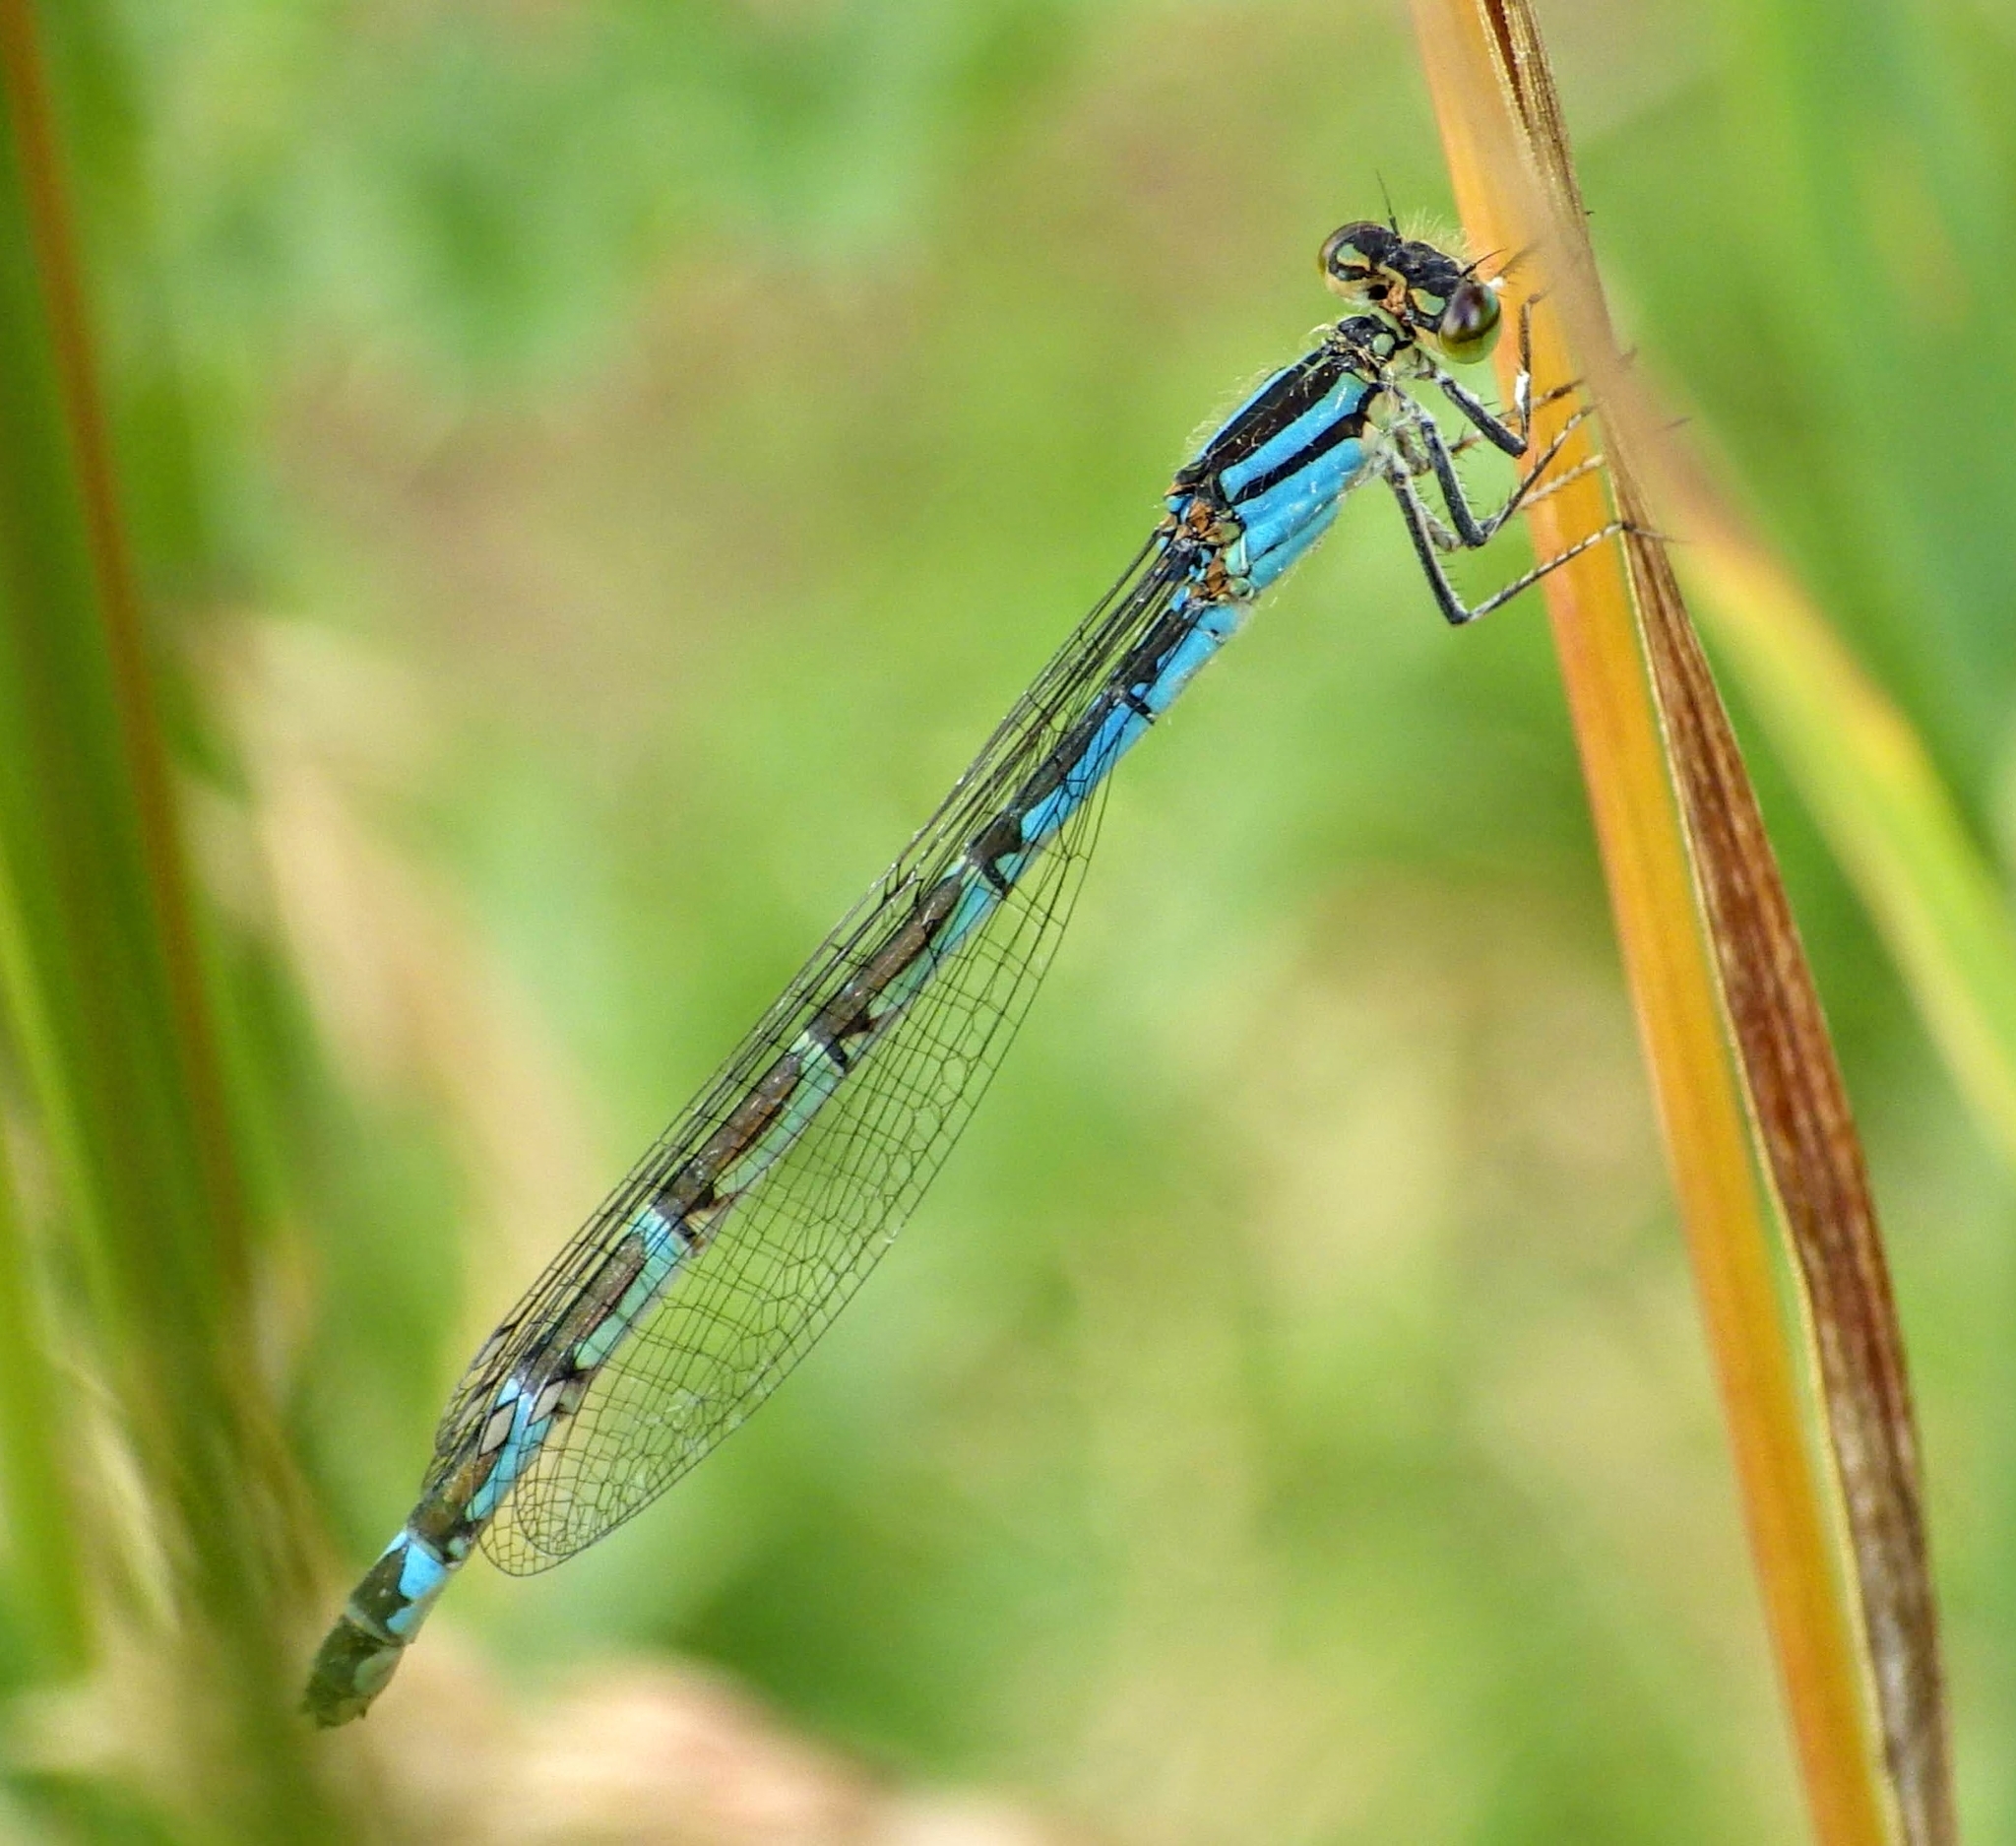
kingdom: Animalia
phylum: Arthropoda
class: Insecta
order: Odonata
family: Coenagrionidae
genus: Enallagma
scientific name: Enallagma cyathigerum
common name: Common blue damselfly
